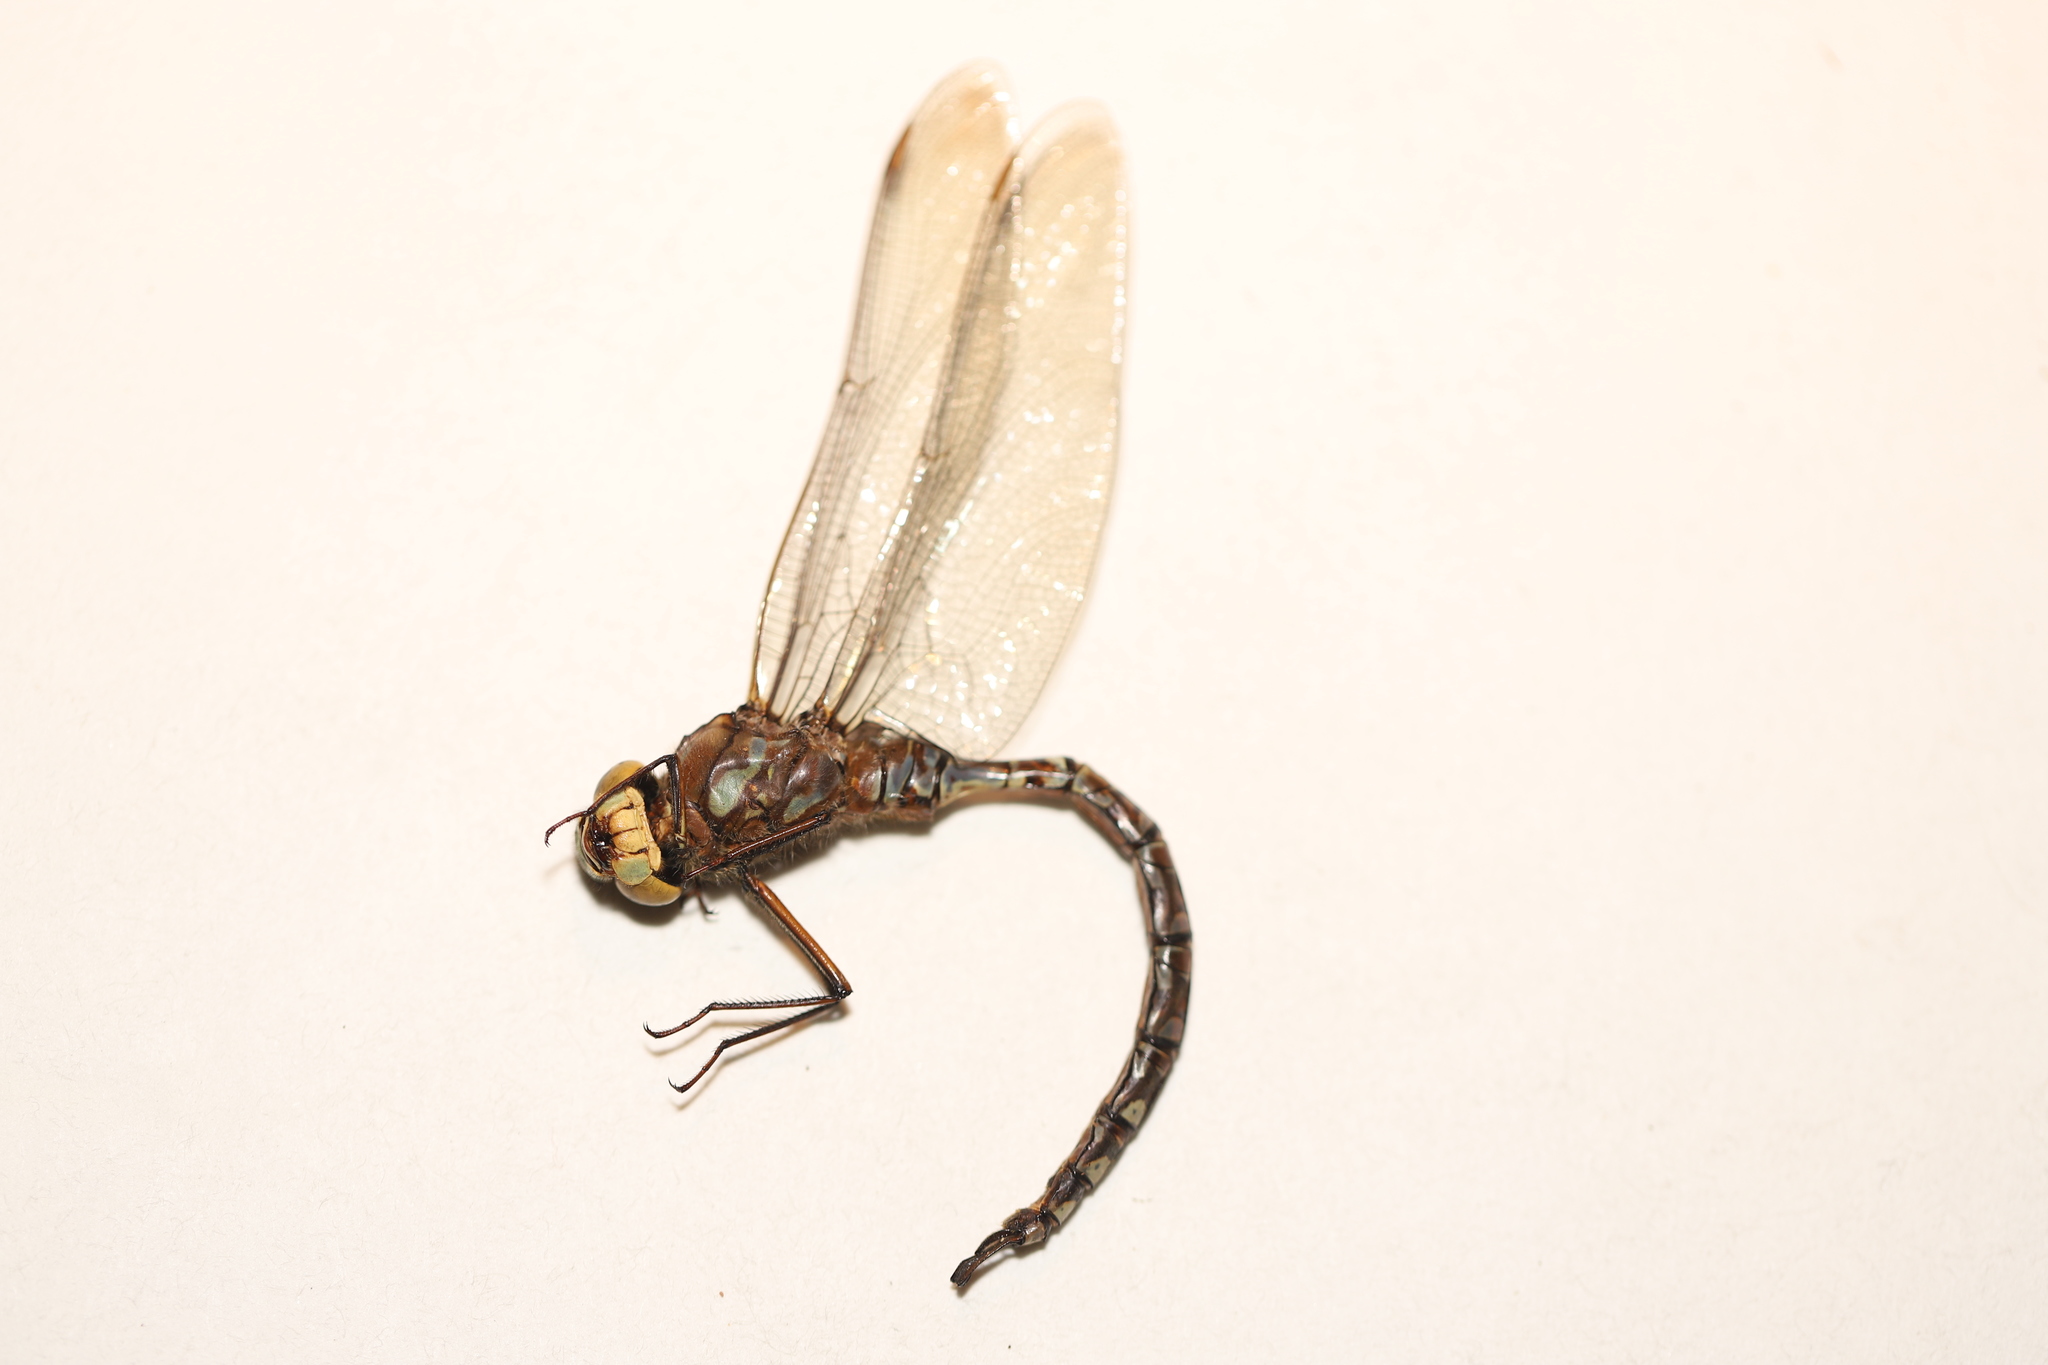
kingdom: Animalia
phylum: Arthropoda
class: Insecta
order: Odonata
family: Aeshnidae
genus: Aeshna
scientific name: Aeshna eremita
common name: Lake darner
